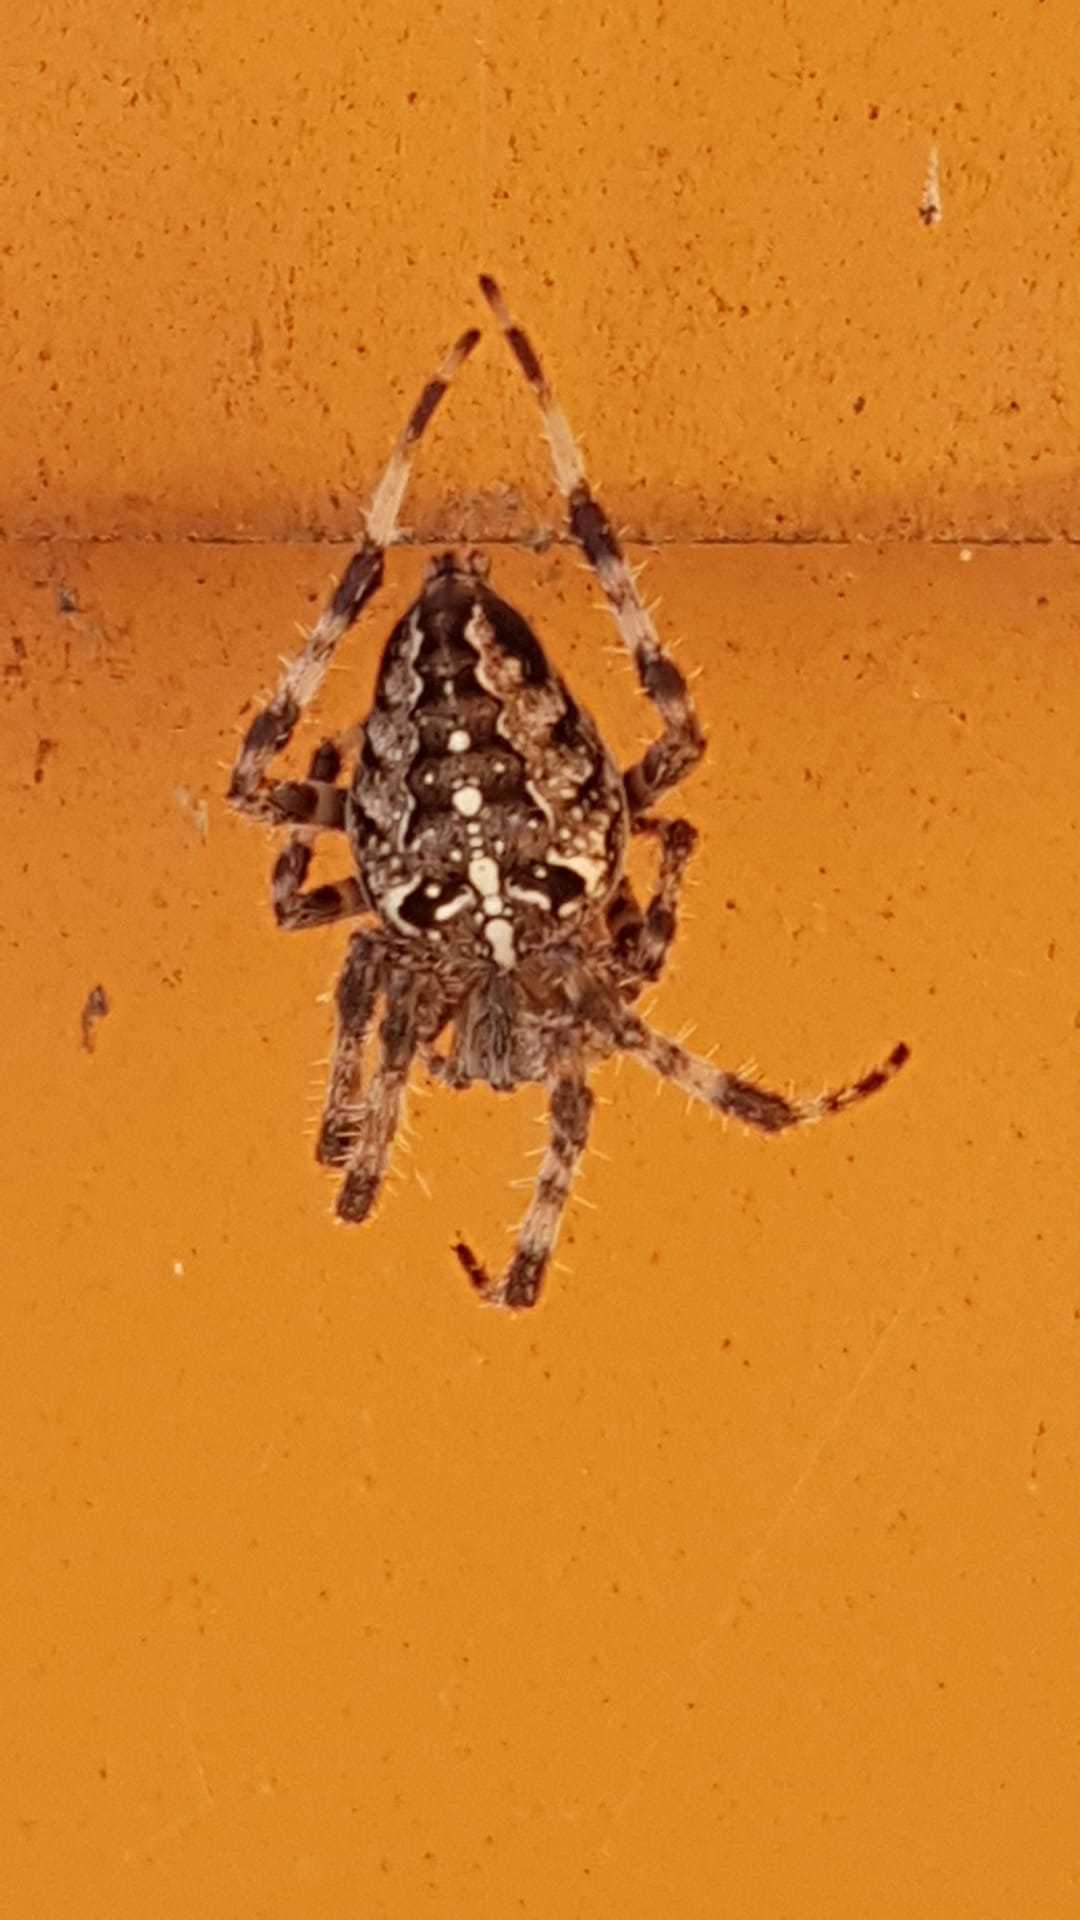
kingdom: Animalia
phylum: Arthropoda
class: Arachnida
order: Araneae
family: Araneidae
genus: Araneus
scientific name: Araneus diadematus
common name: Cross orbweaver
